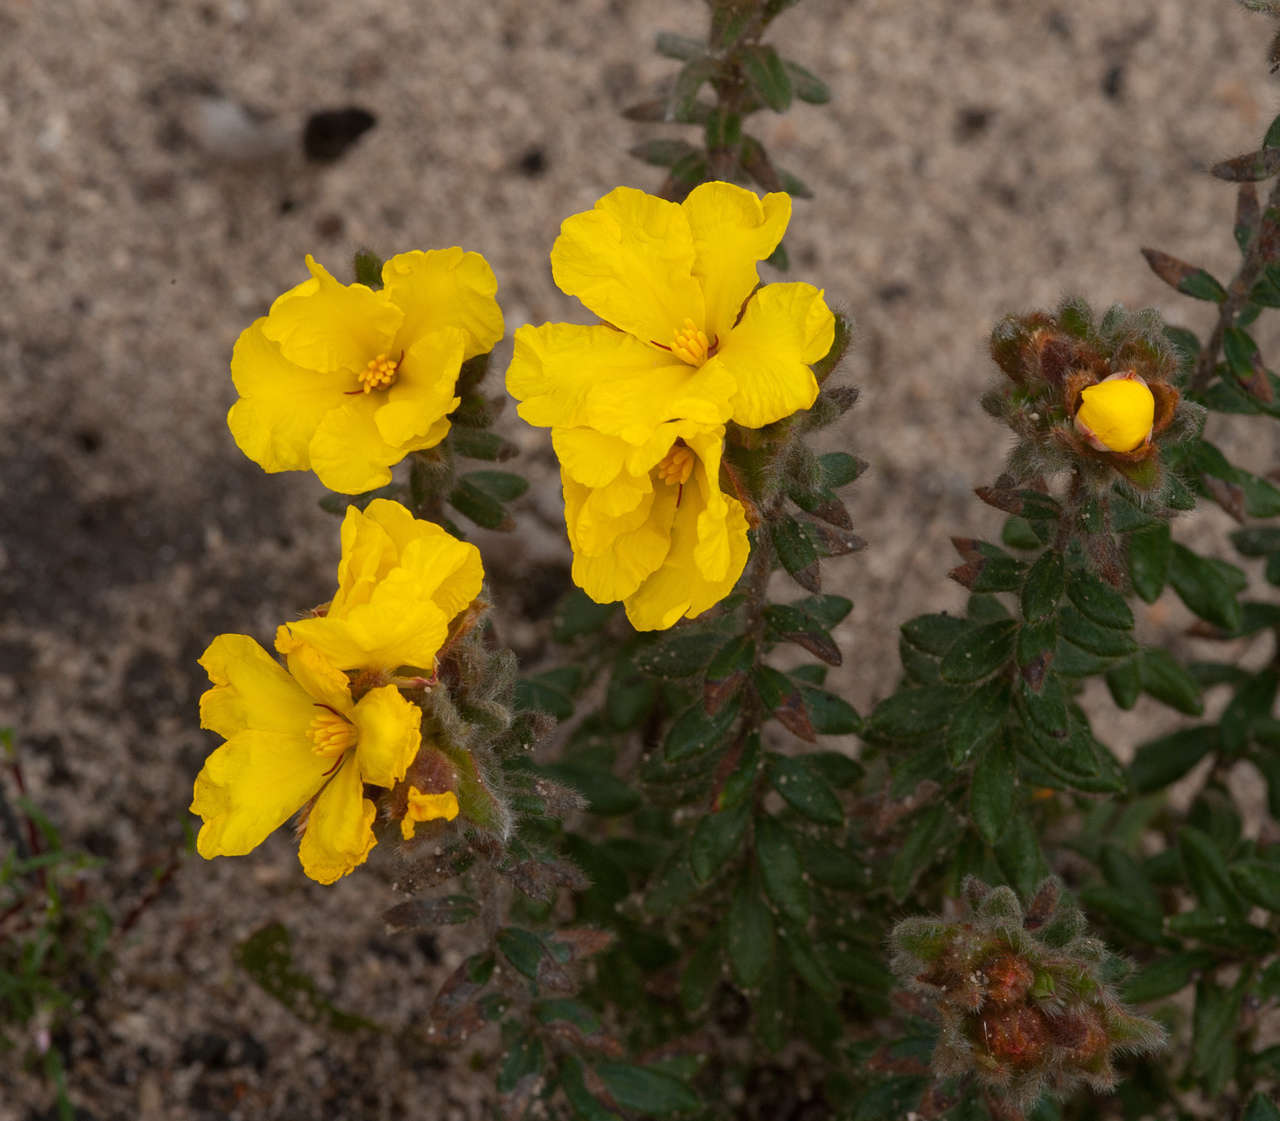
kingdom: Plantae
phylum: Tracheophyta
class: Magnoliopsida
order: Dilleniales
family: Dilleniaceae
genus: Hibbertia
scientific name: Hibbertia sericea
